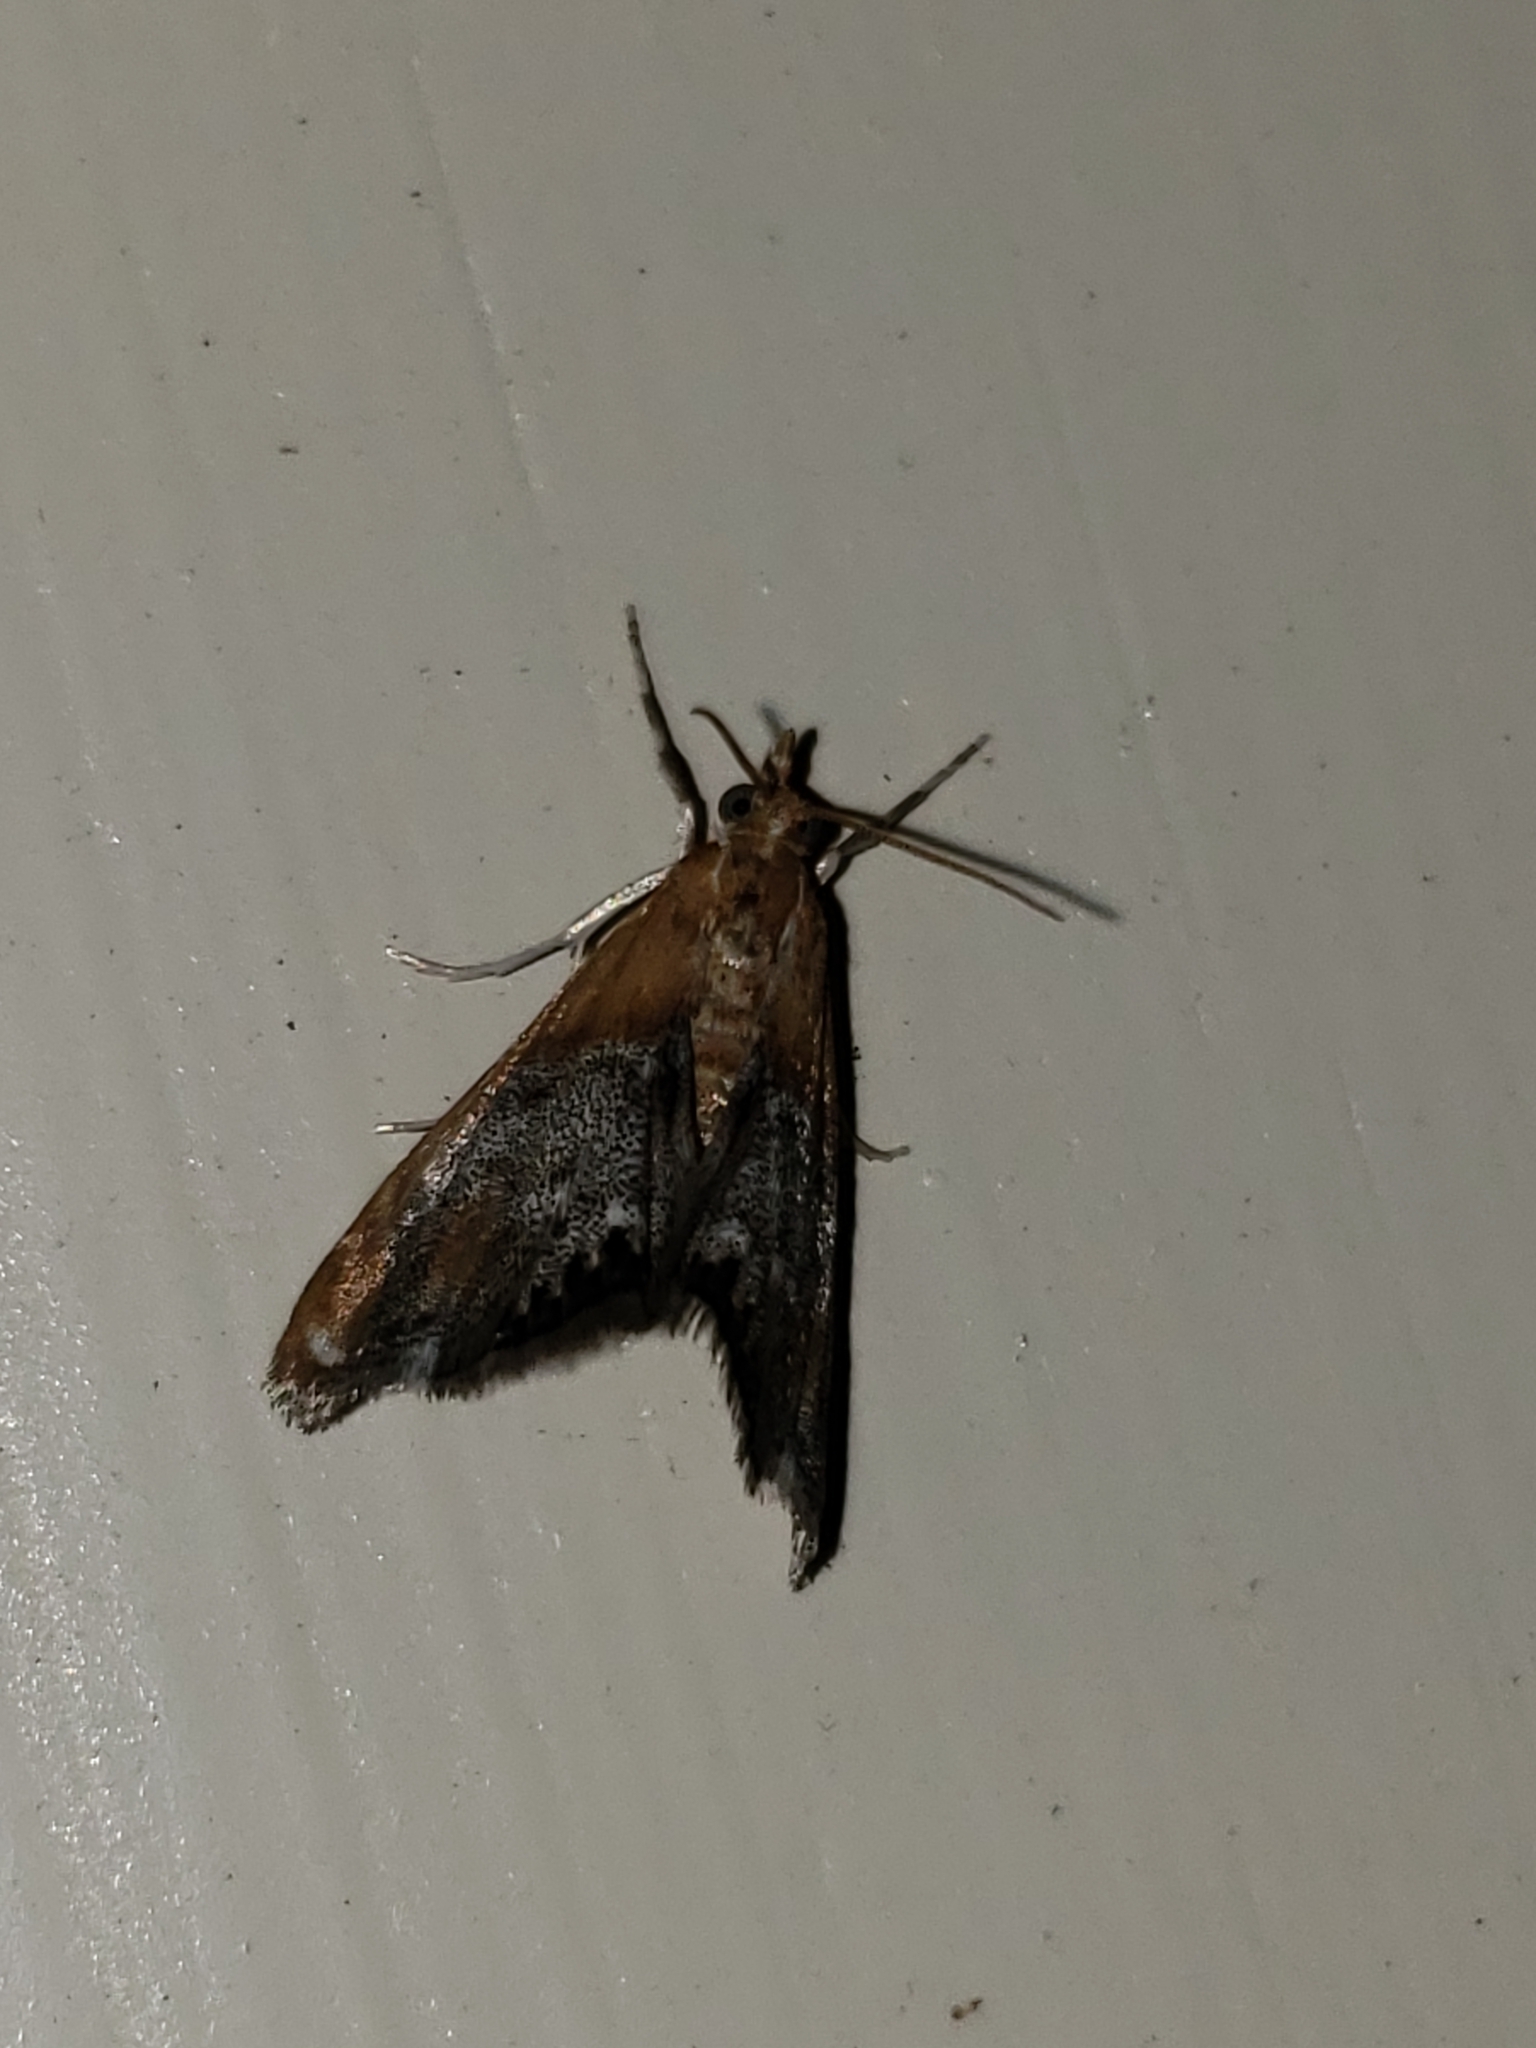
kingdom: Animalia
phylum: Arthropoda
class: Insecta
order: Lepidoptera
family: Crambidae
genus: Chalcoela
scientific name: Chalcoela iphitalis
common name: Sooty-winged chalcoela moth
